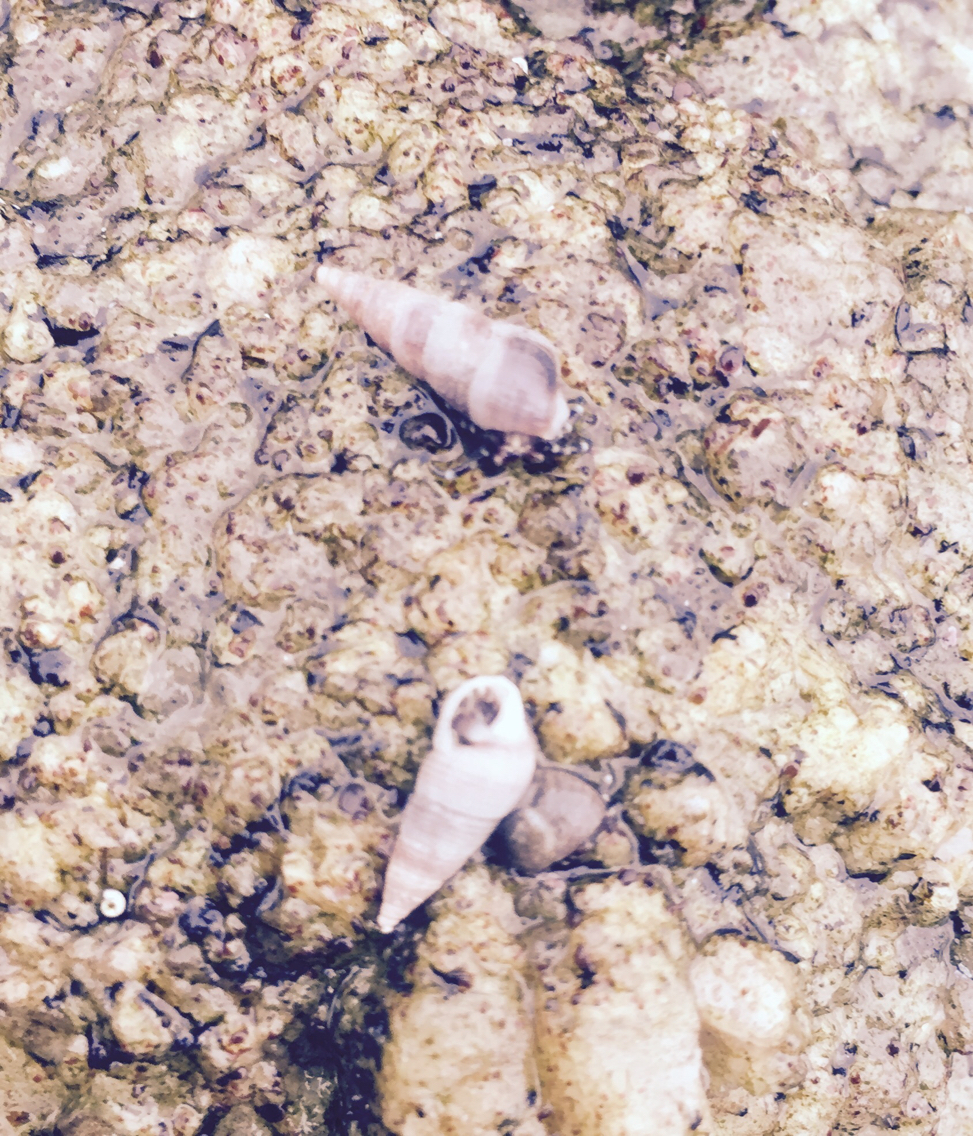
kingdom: Animalia
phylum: Mollusca
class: Gastropoda
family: Cerithiidae
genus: Neostylidium
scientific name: Neostylidium eschrichtii
